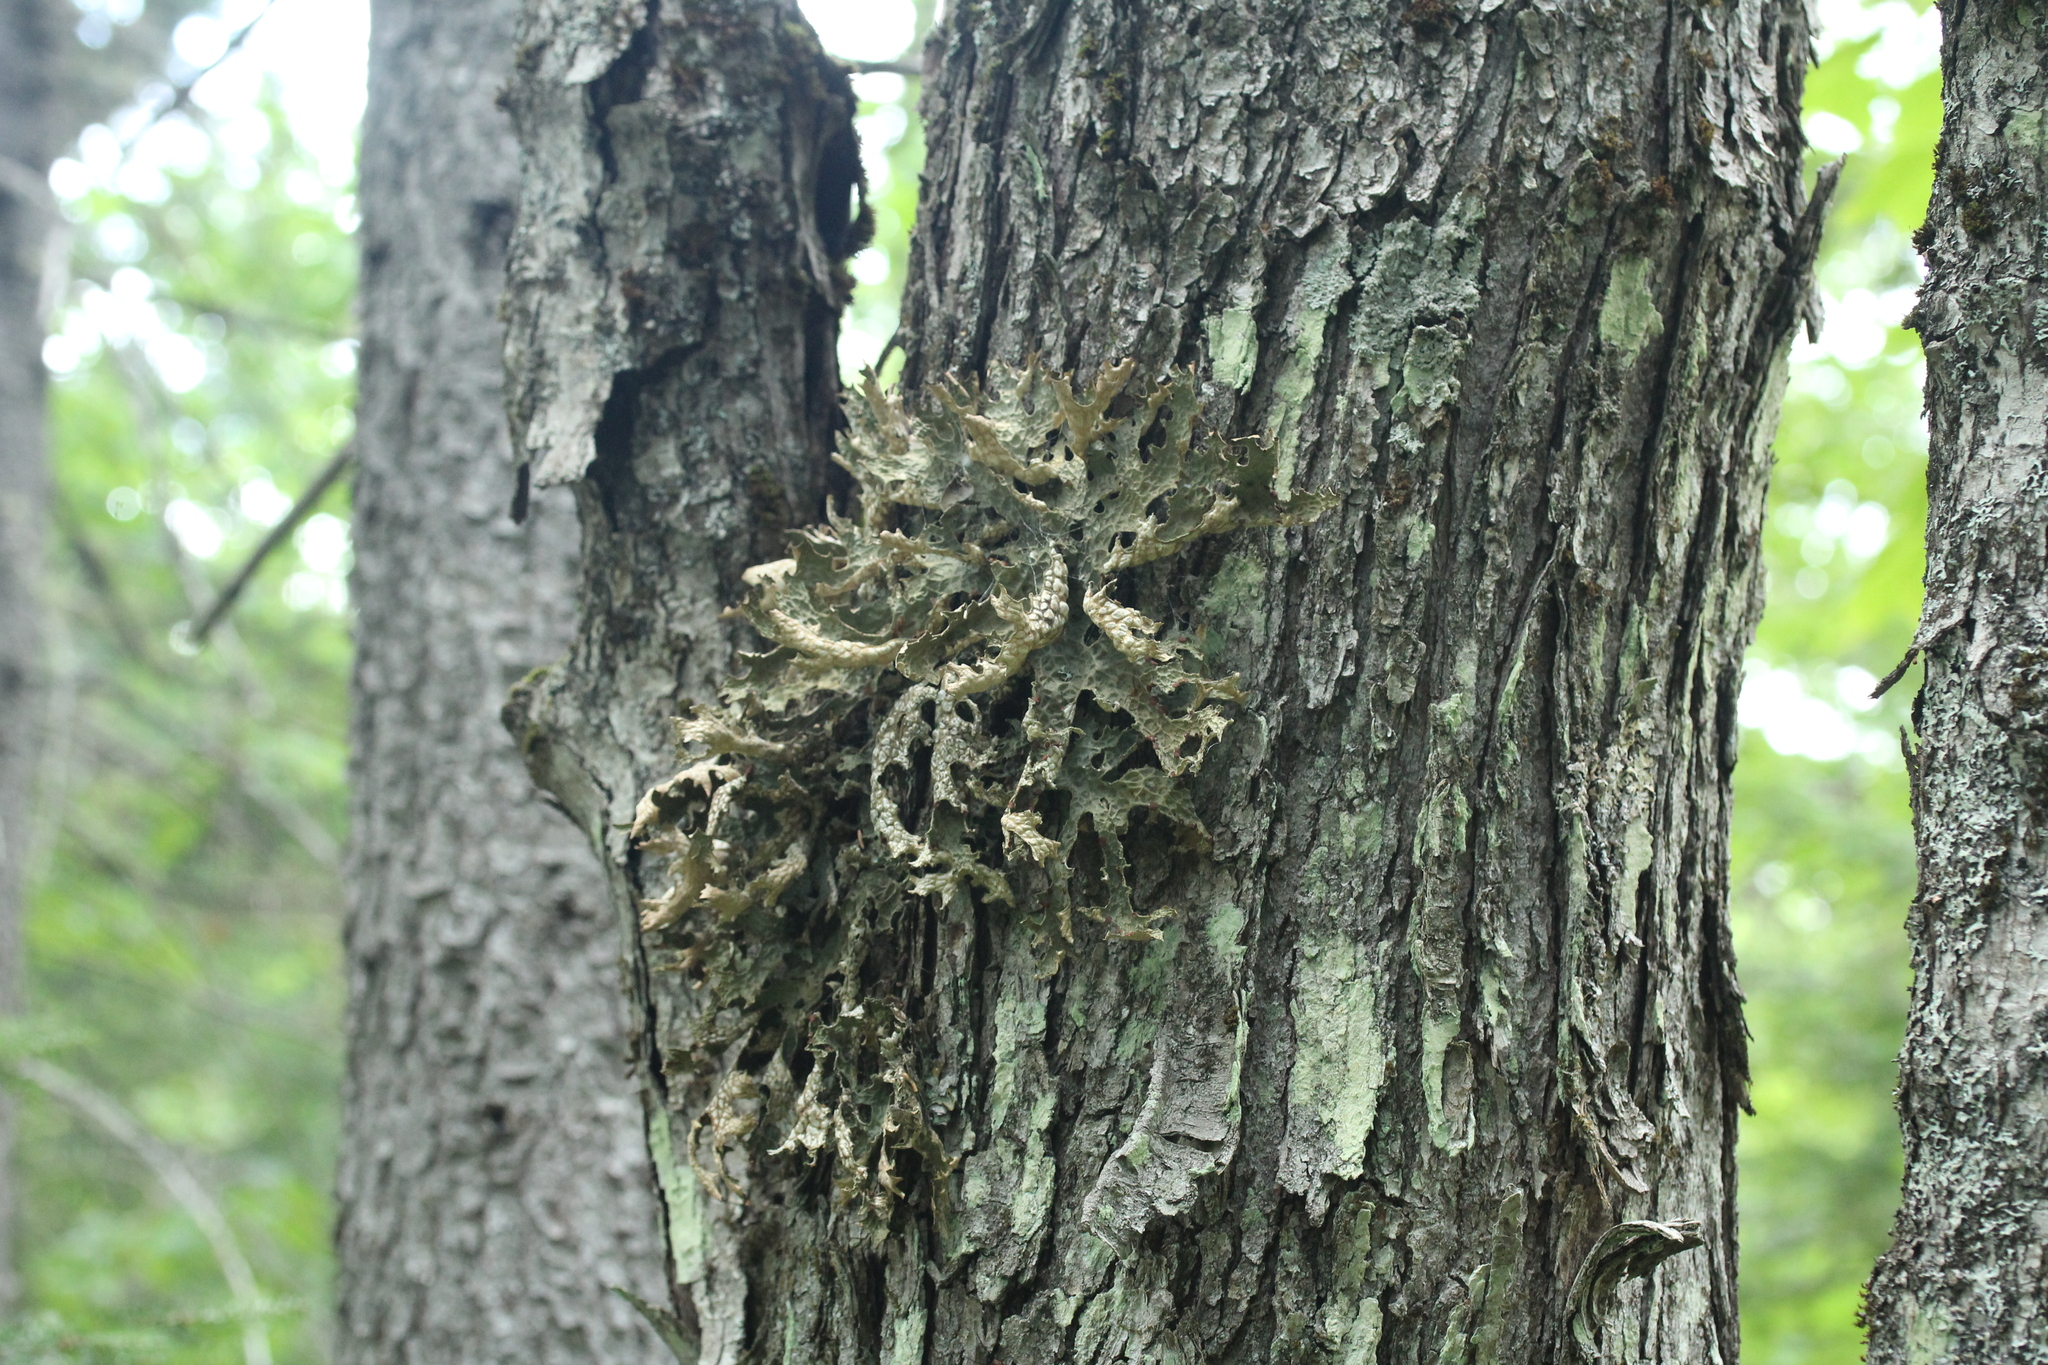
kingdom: Fungi
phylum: Ascomycota
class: Lecanoromycetes
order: Peltigerales
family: Lobariaceae
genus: Lobaria
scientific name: Lobaria pulmonaria
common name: Lungwort
